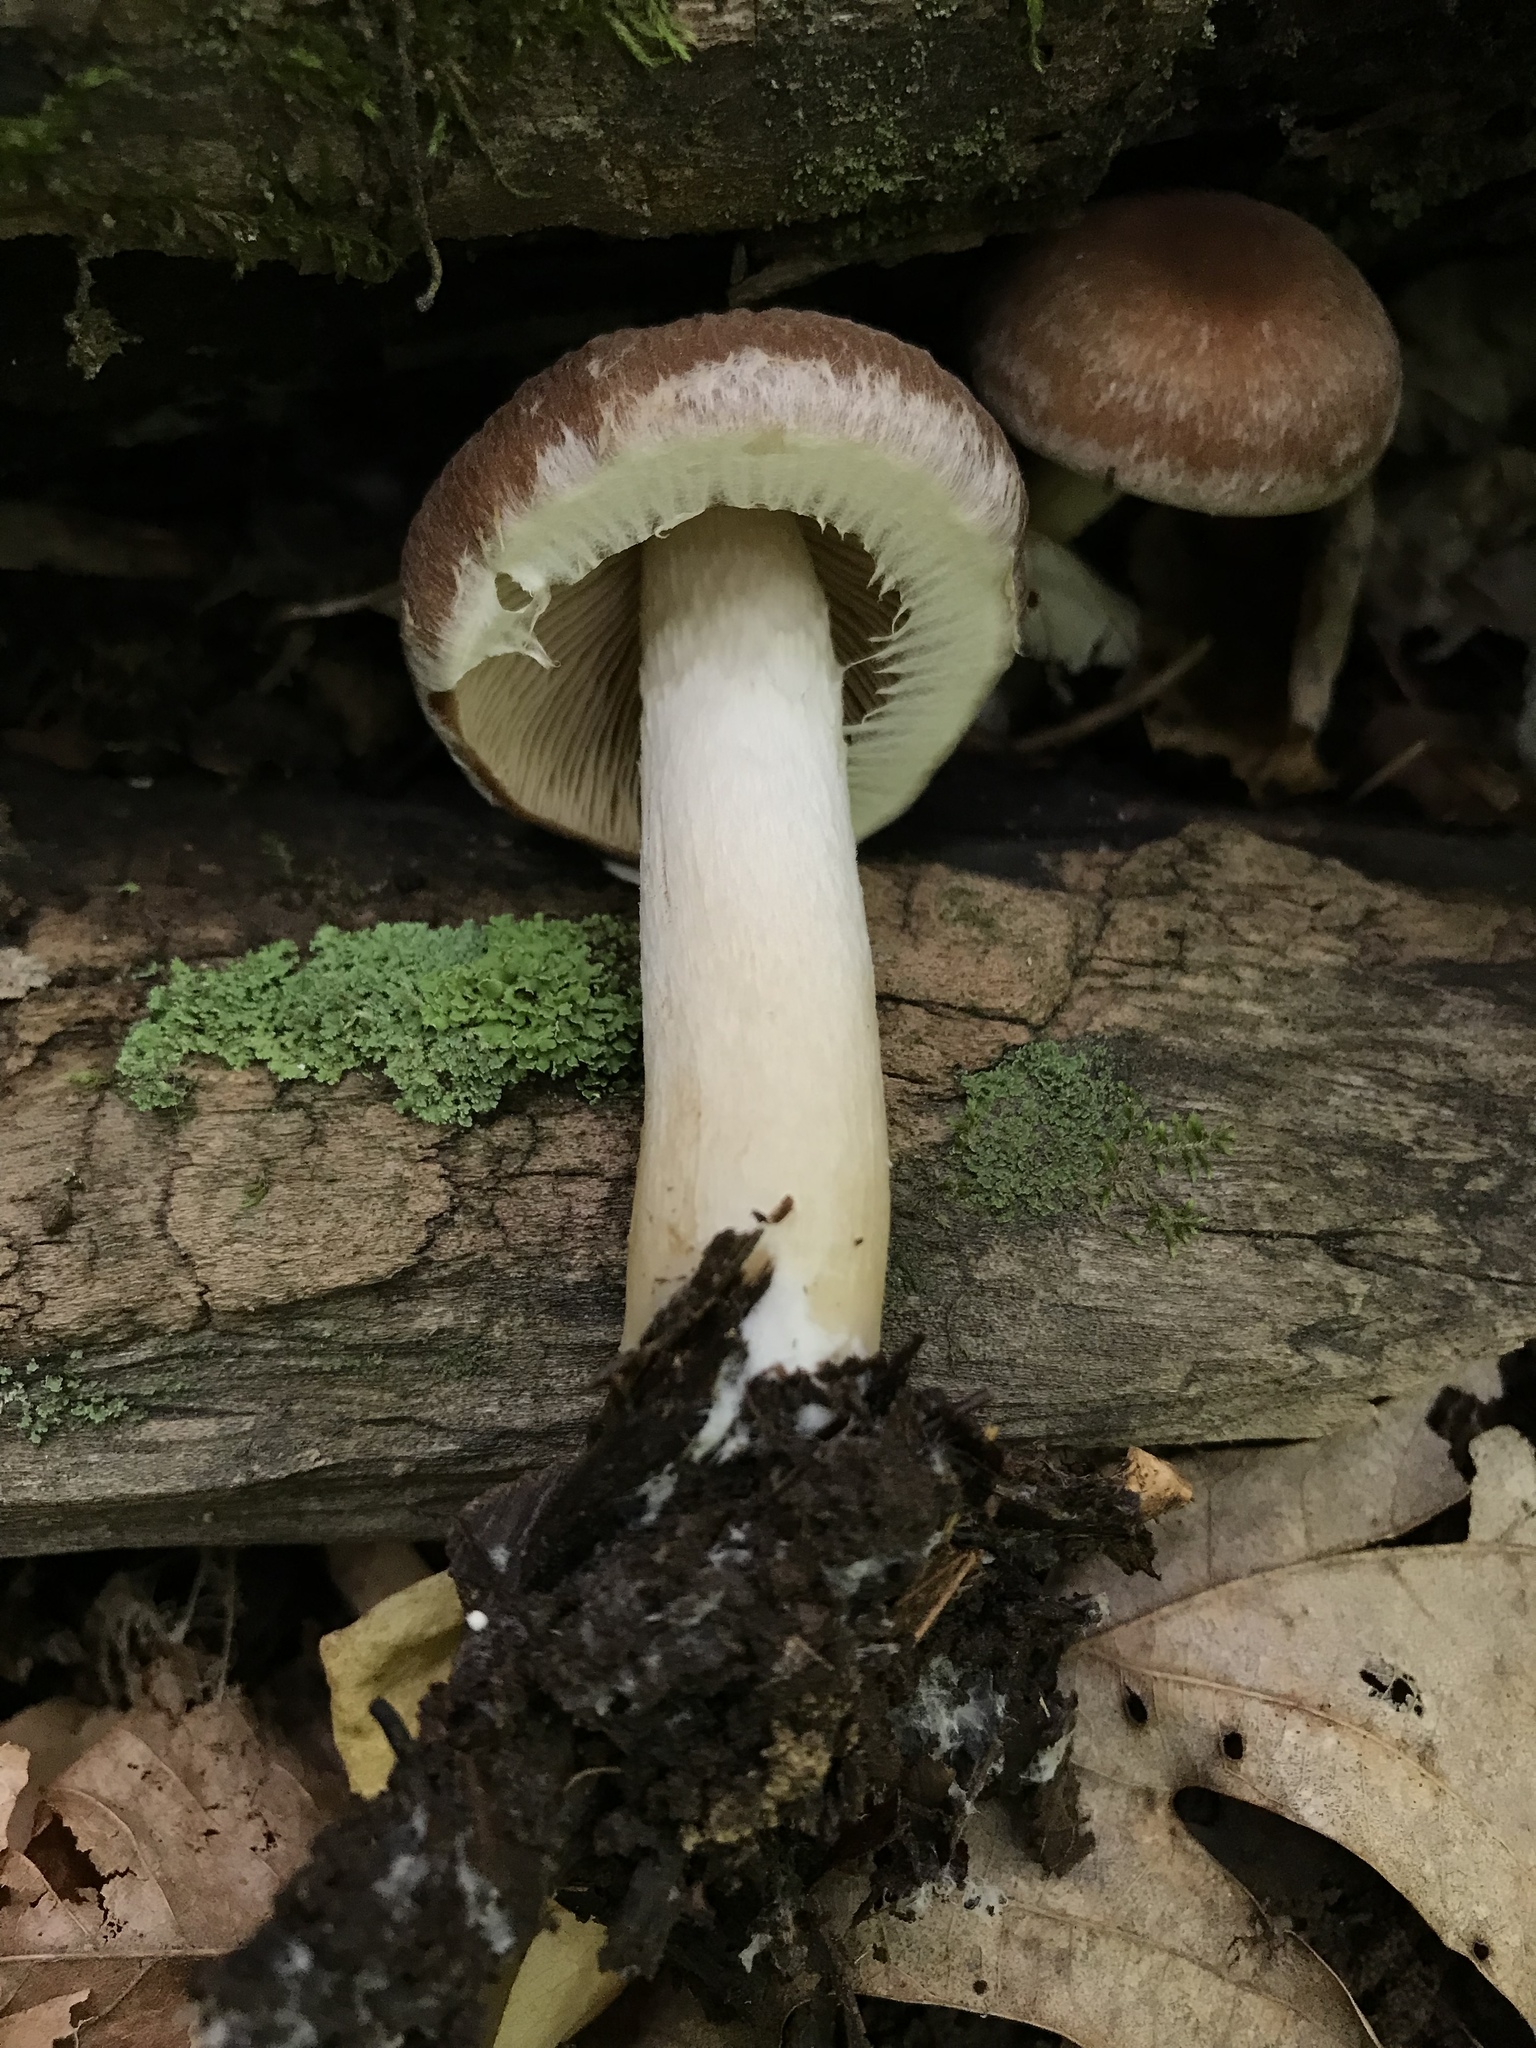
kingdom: Fungi
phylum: Basidiomycota
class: Agaricomycetes
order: Agaricales
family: Psathyrellaceae
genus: Typhrasa
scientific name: Typhrasa gossypina
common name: Wrinkled psathyrella
